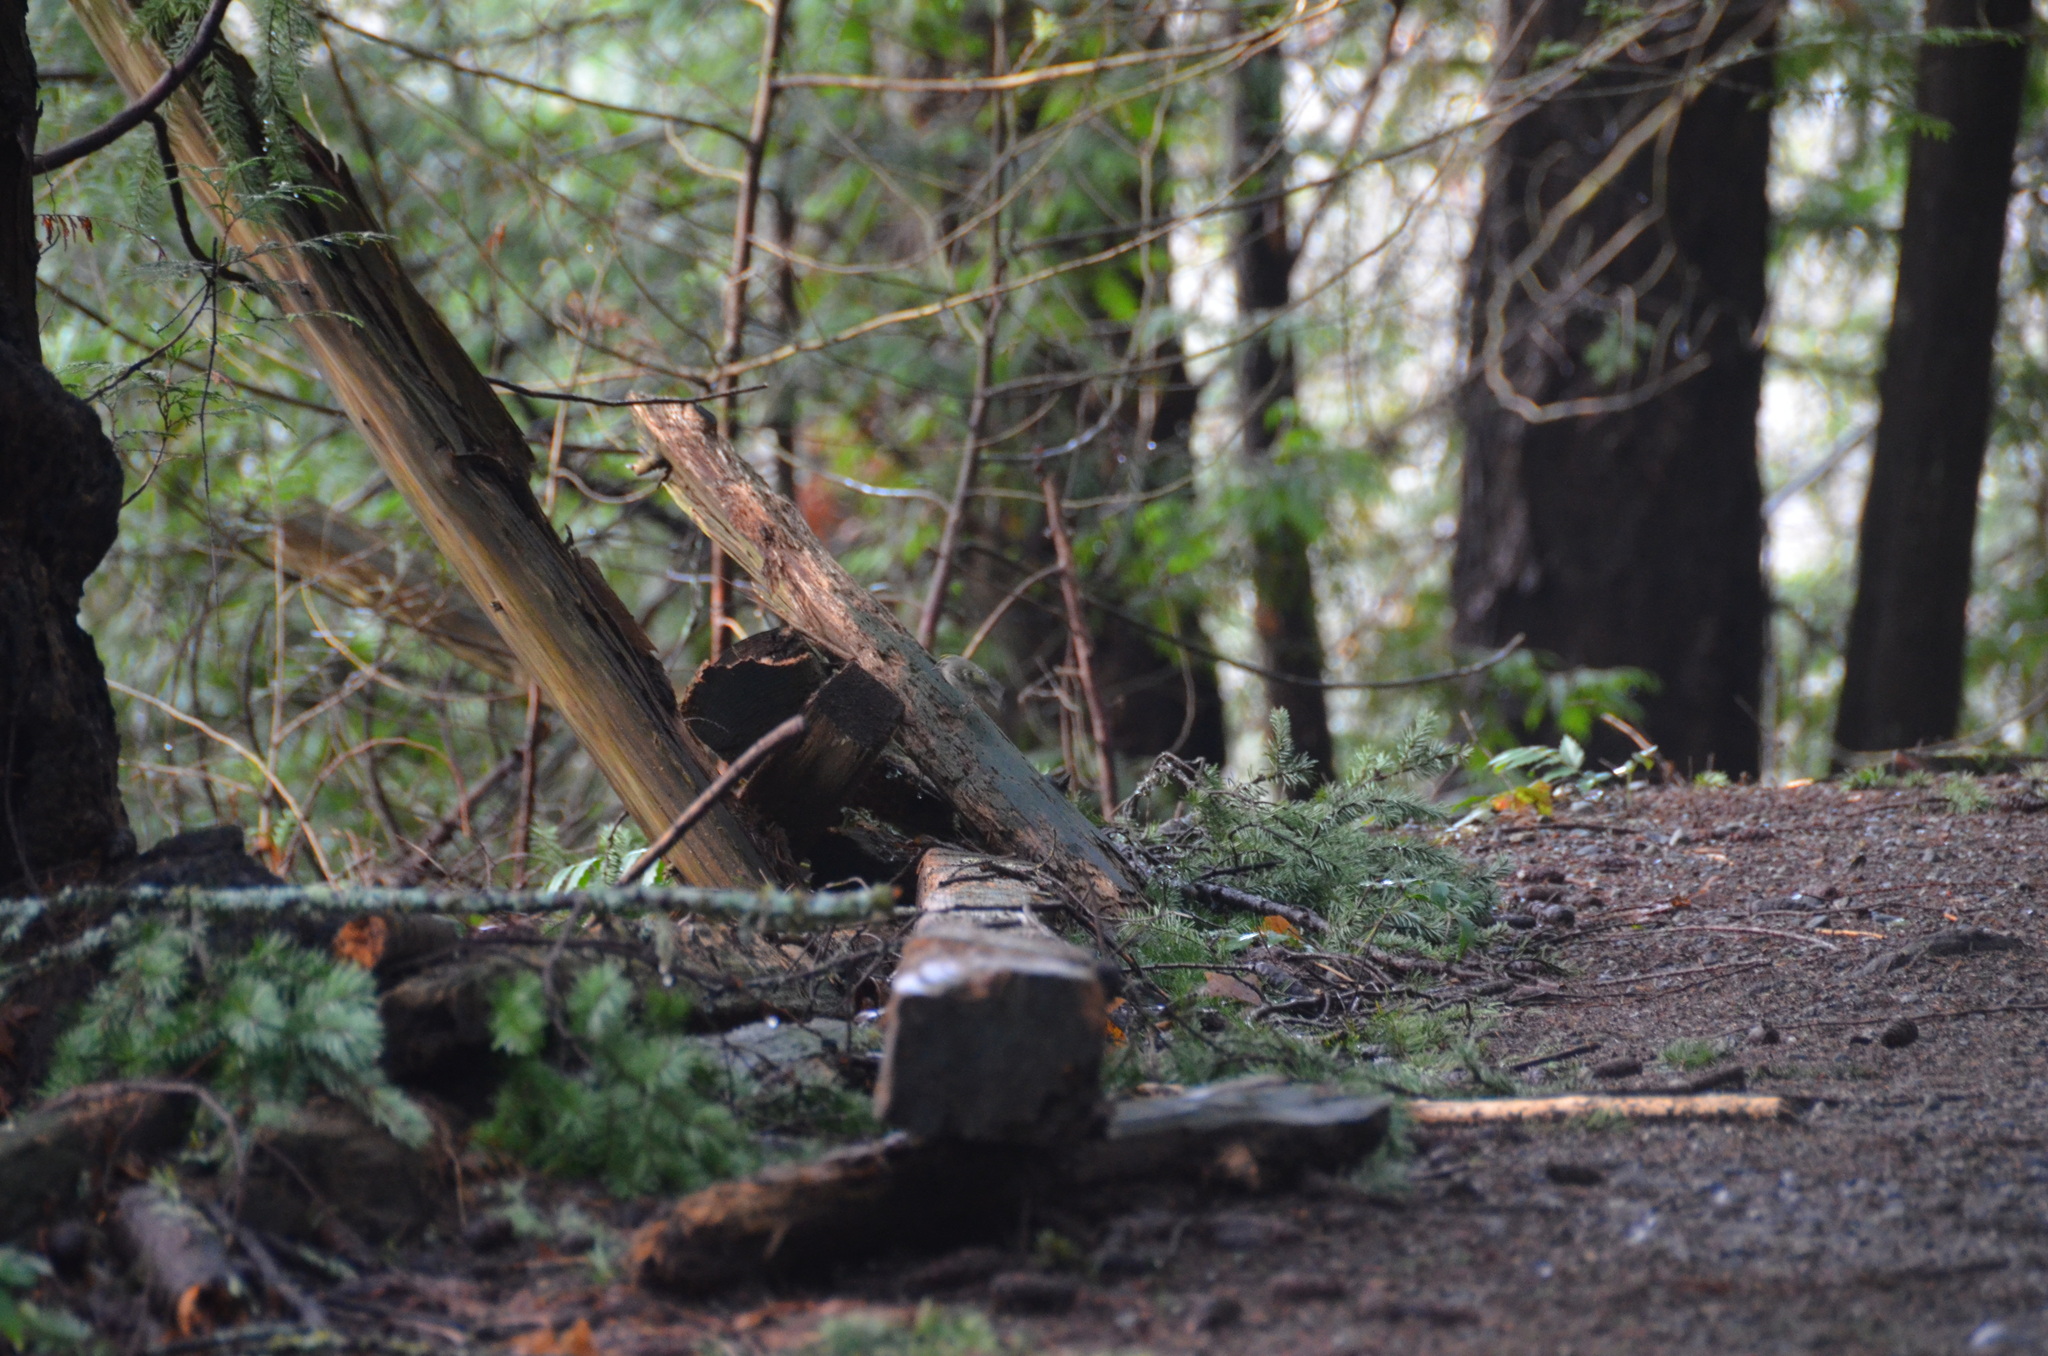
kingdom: Animalia
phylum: Chordata
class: Aves
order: Passeriformes
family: Regulidae
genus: Regulus
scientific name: Regulus satrapa
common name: Golden-crowned kinglet
